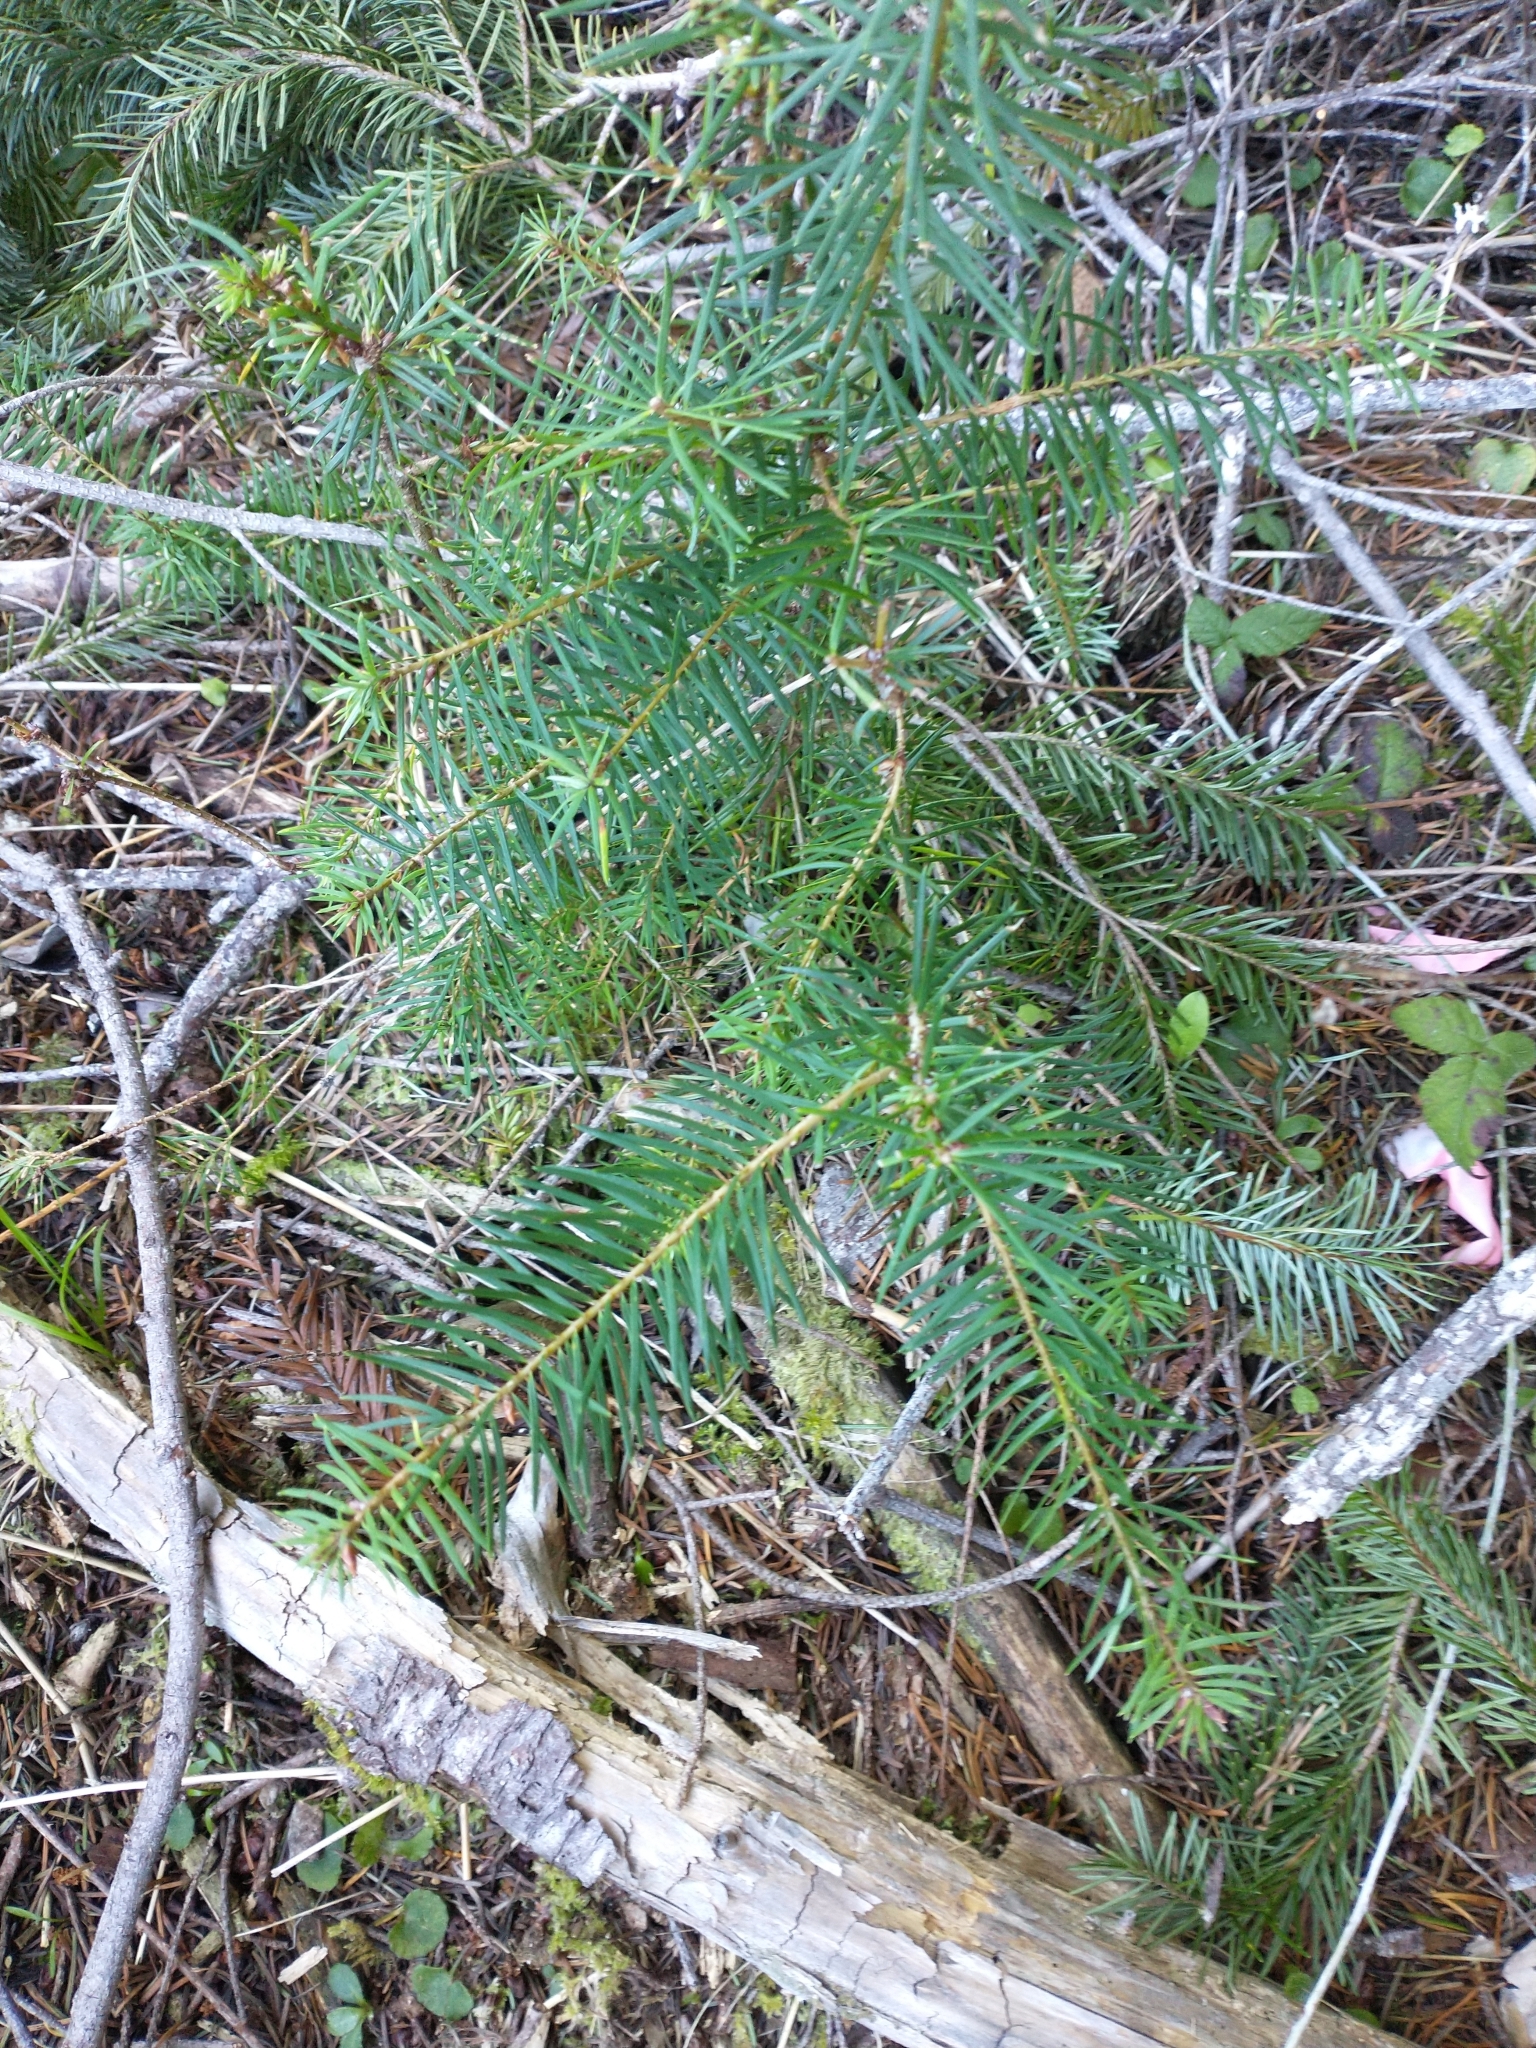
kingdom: Plantae
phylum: Tracheophyta
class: Pinopsida
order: Pinales
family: Pinaceae
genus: Pseudotsuga
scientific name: Pseudotsuga menziesii
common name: Douglas fir
